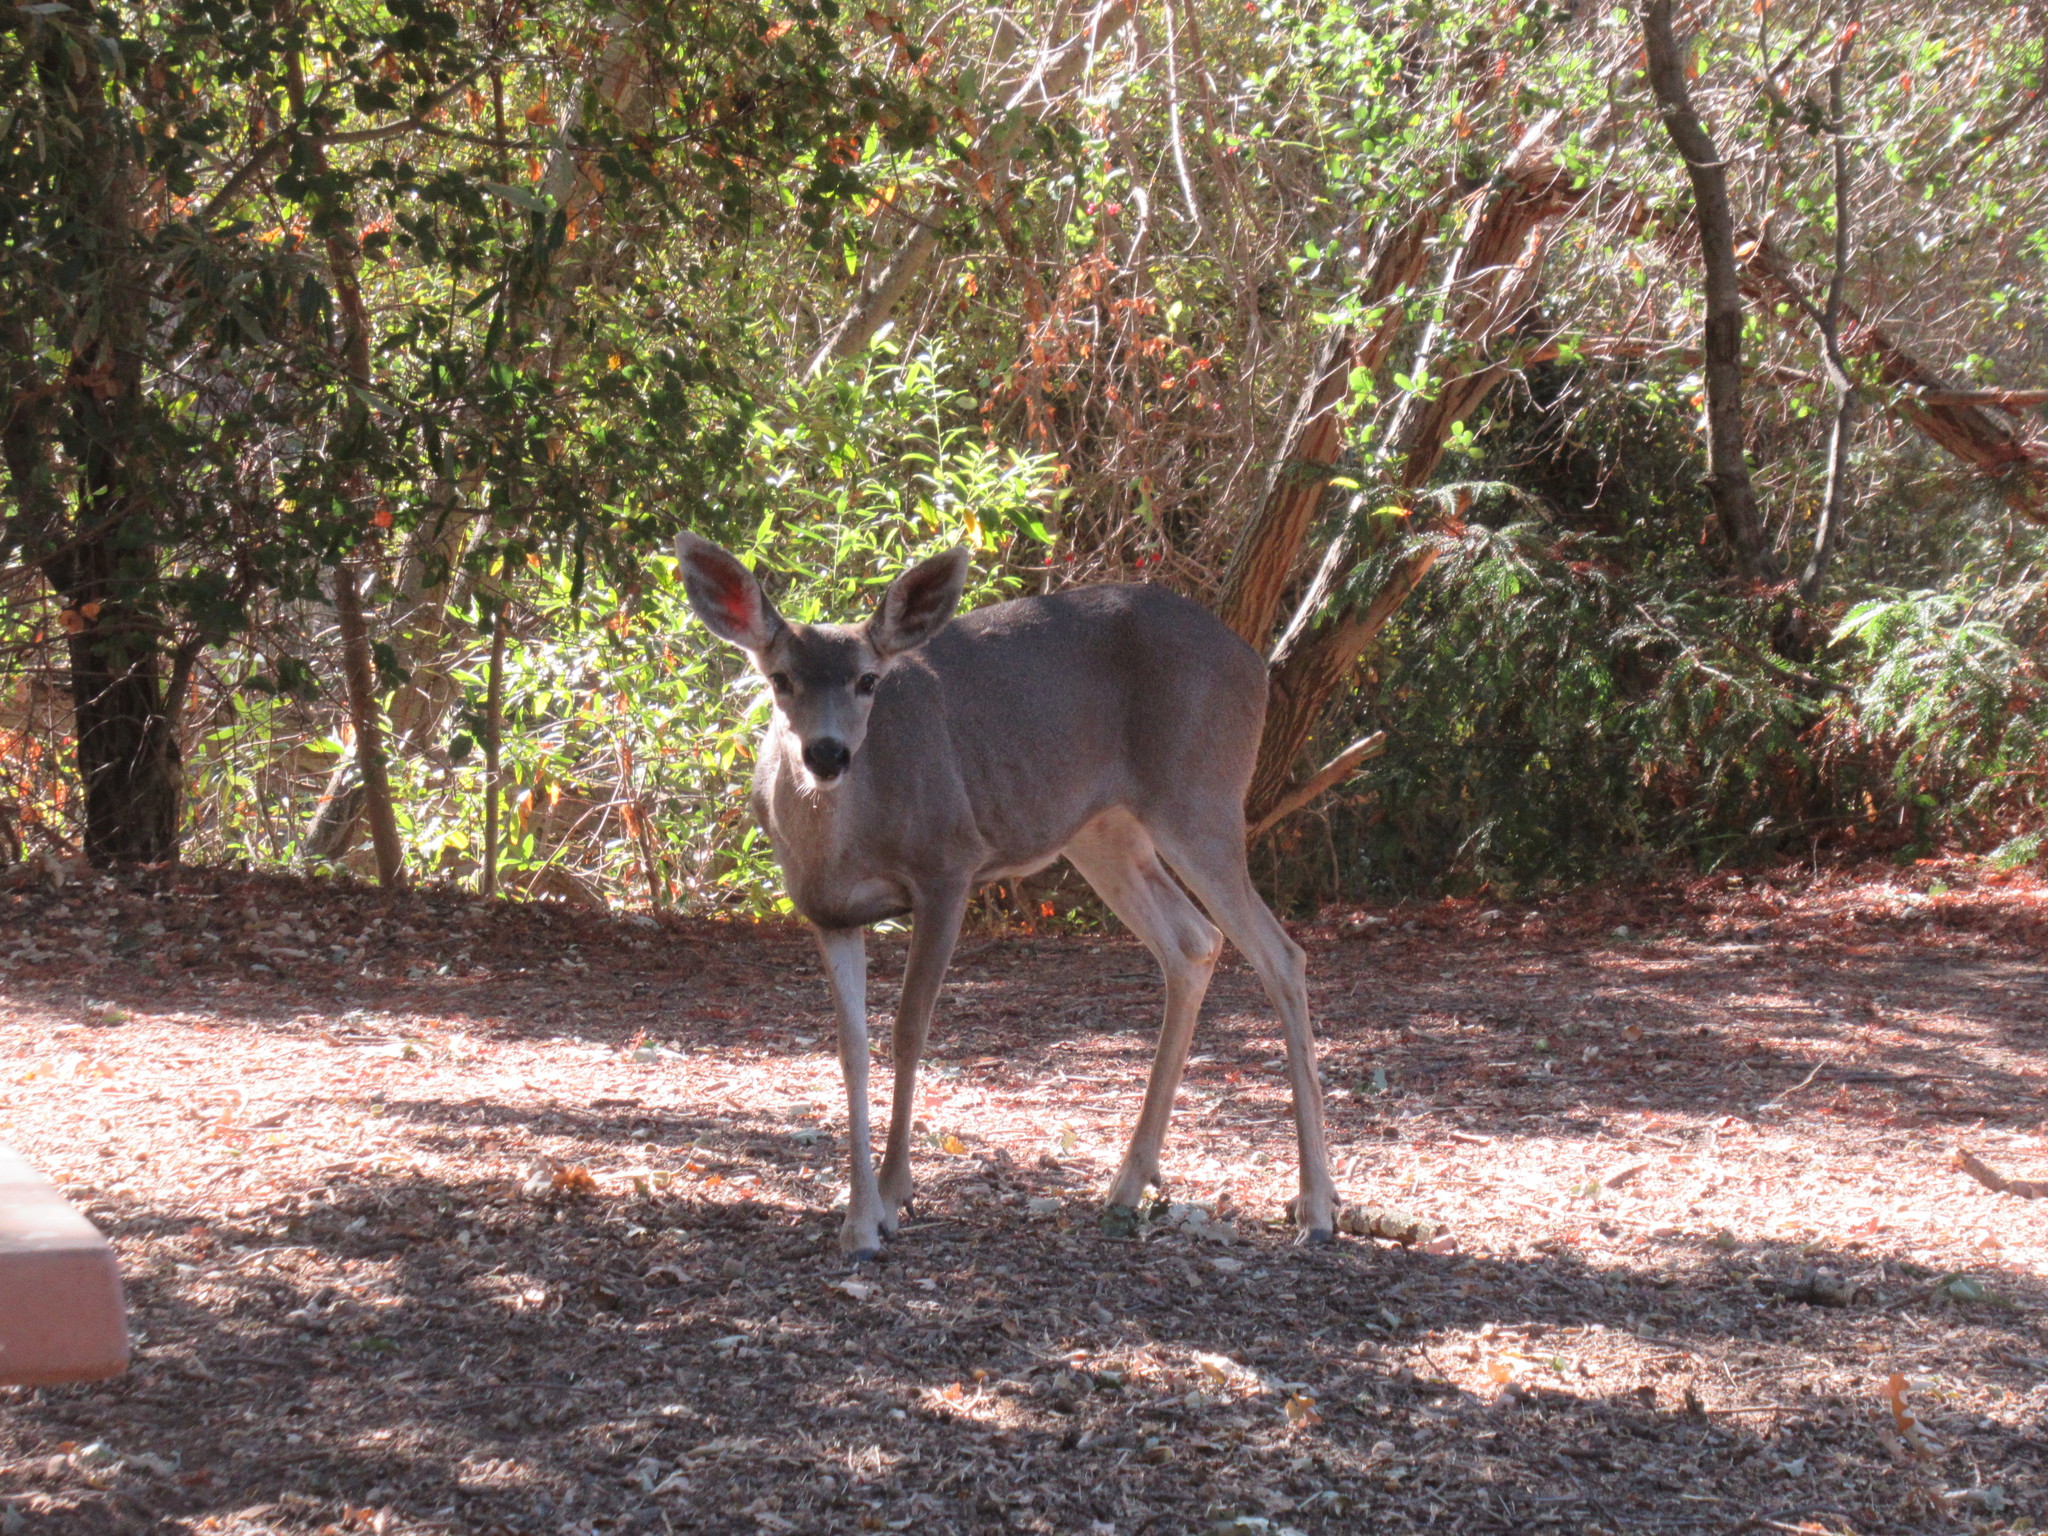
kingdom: Animalia
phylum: Chordata
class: Mammalia
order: Artiodactyla
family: Cervidae
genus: Odocoileus
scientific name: Odocoileus hemionus
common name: Mule deer
